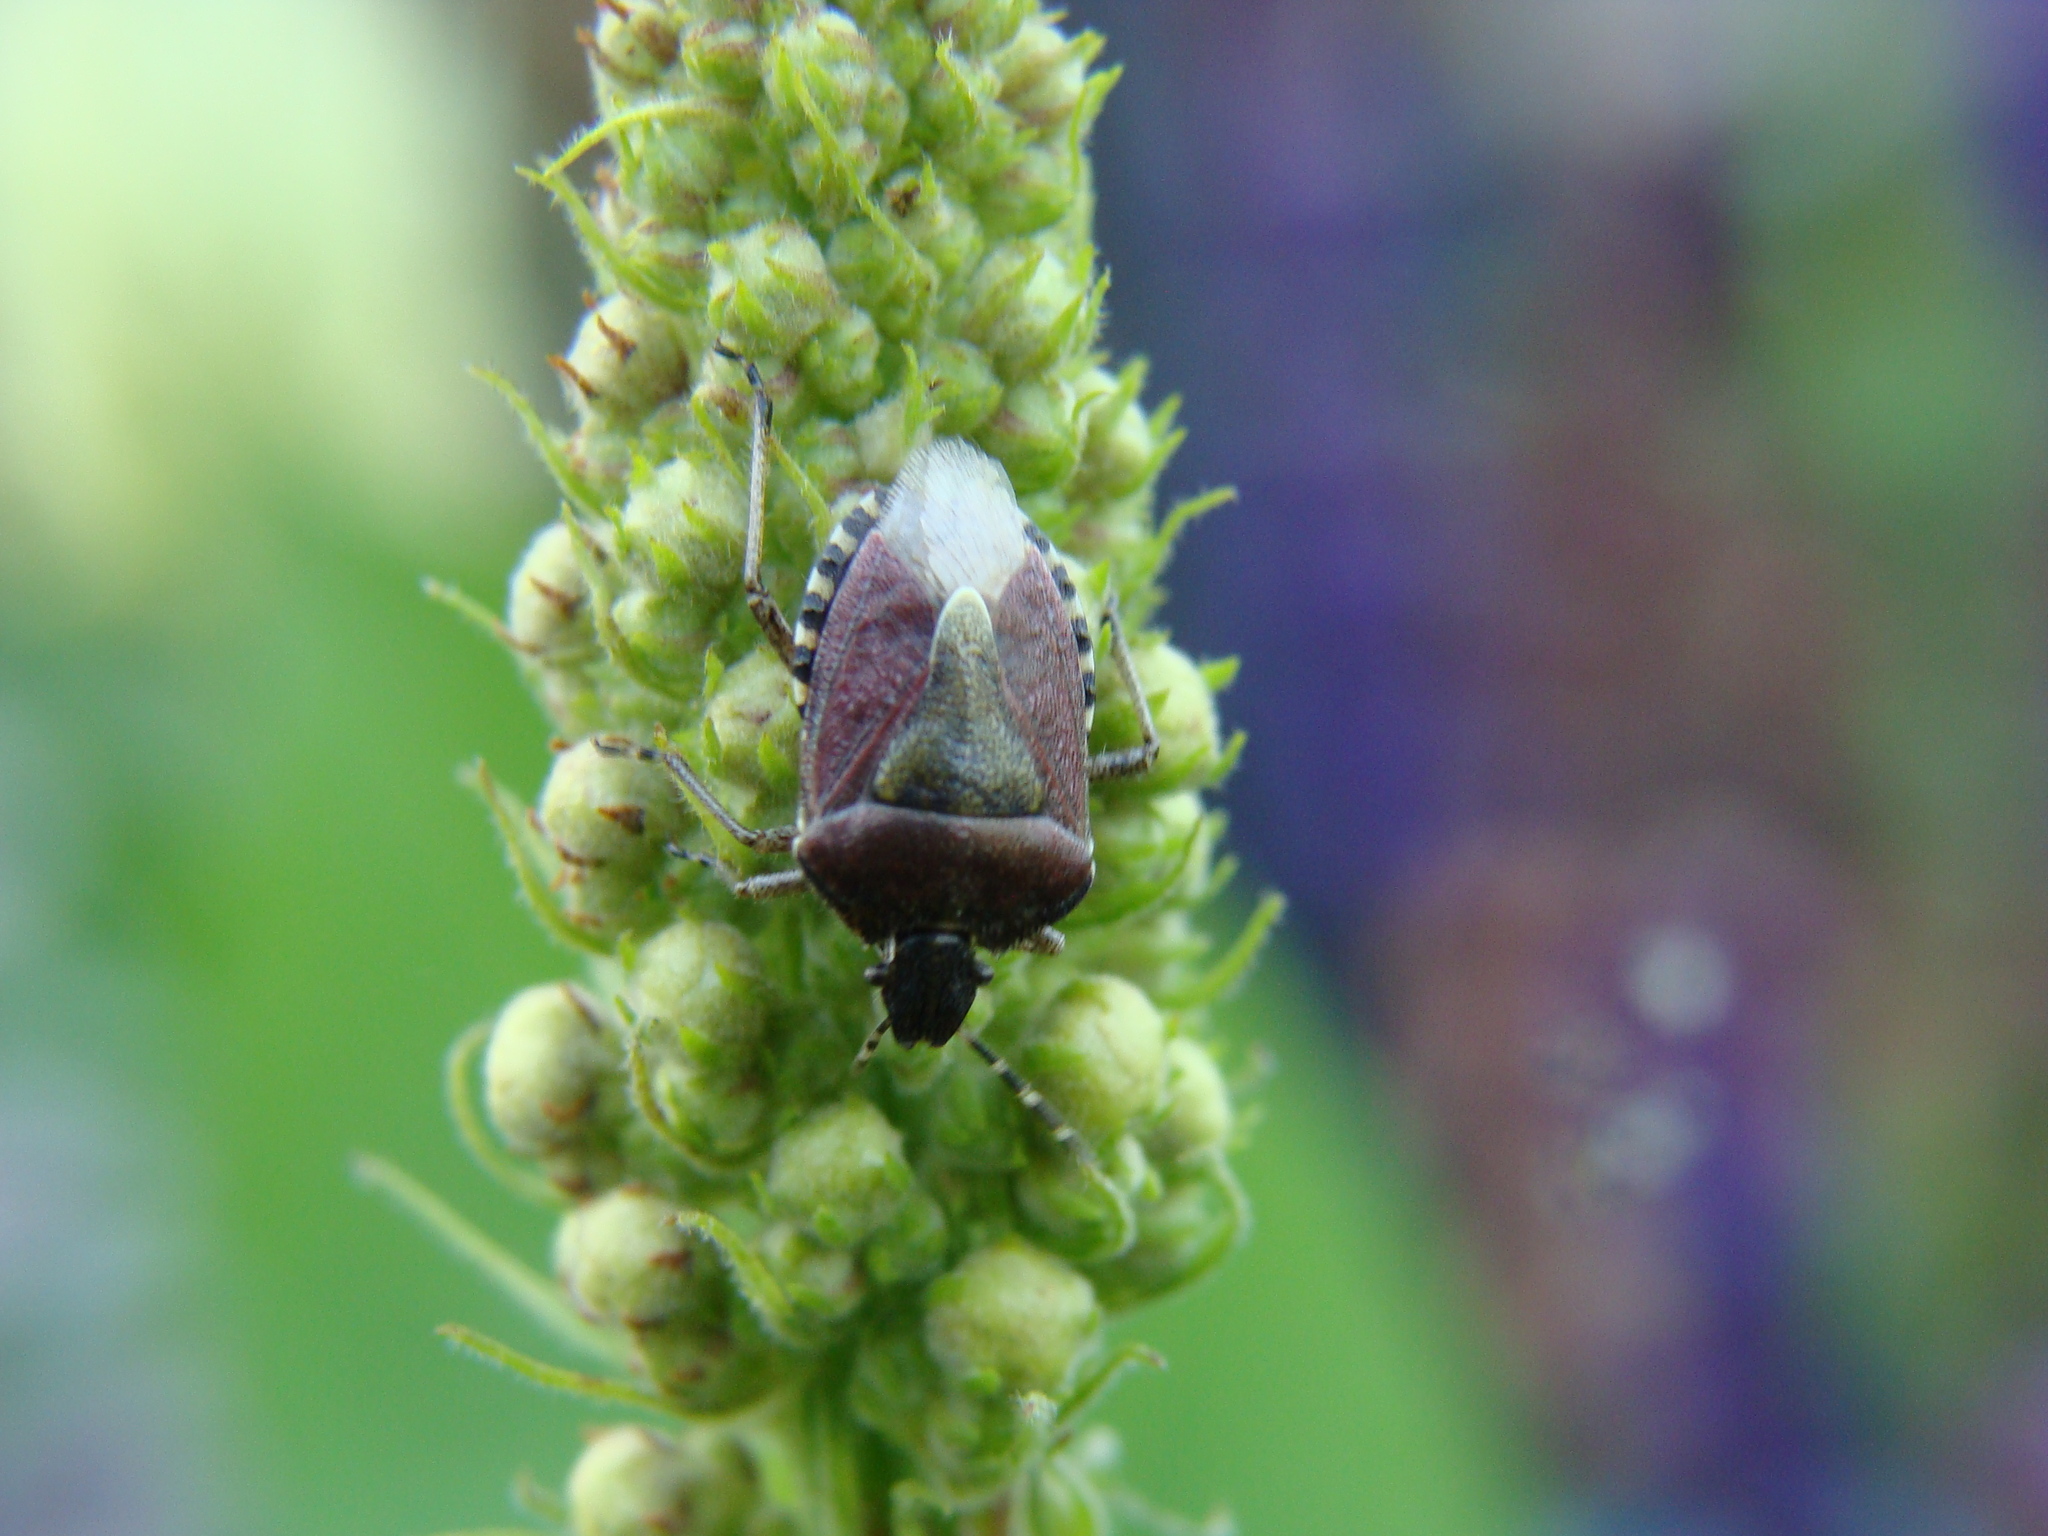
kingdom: Animalia
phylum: Arthropoda
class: Insecta
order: Hemiptera
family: Pentatomidae
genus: Dolycoris
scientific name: Dolycoris baccarum
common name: Sloe bug
